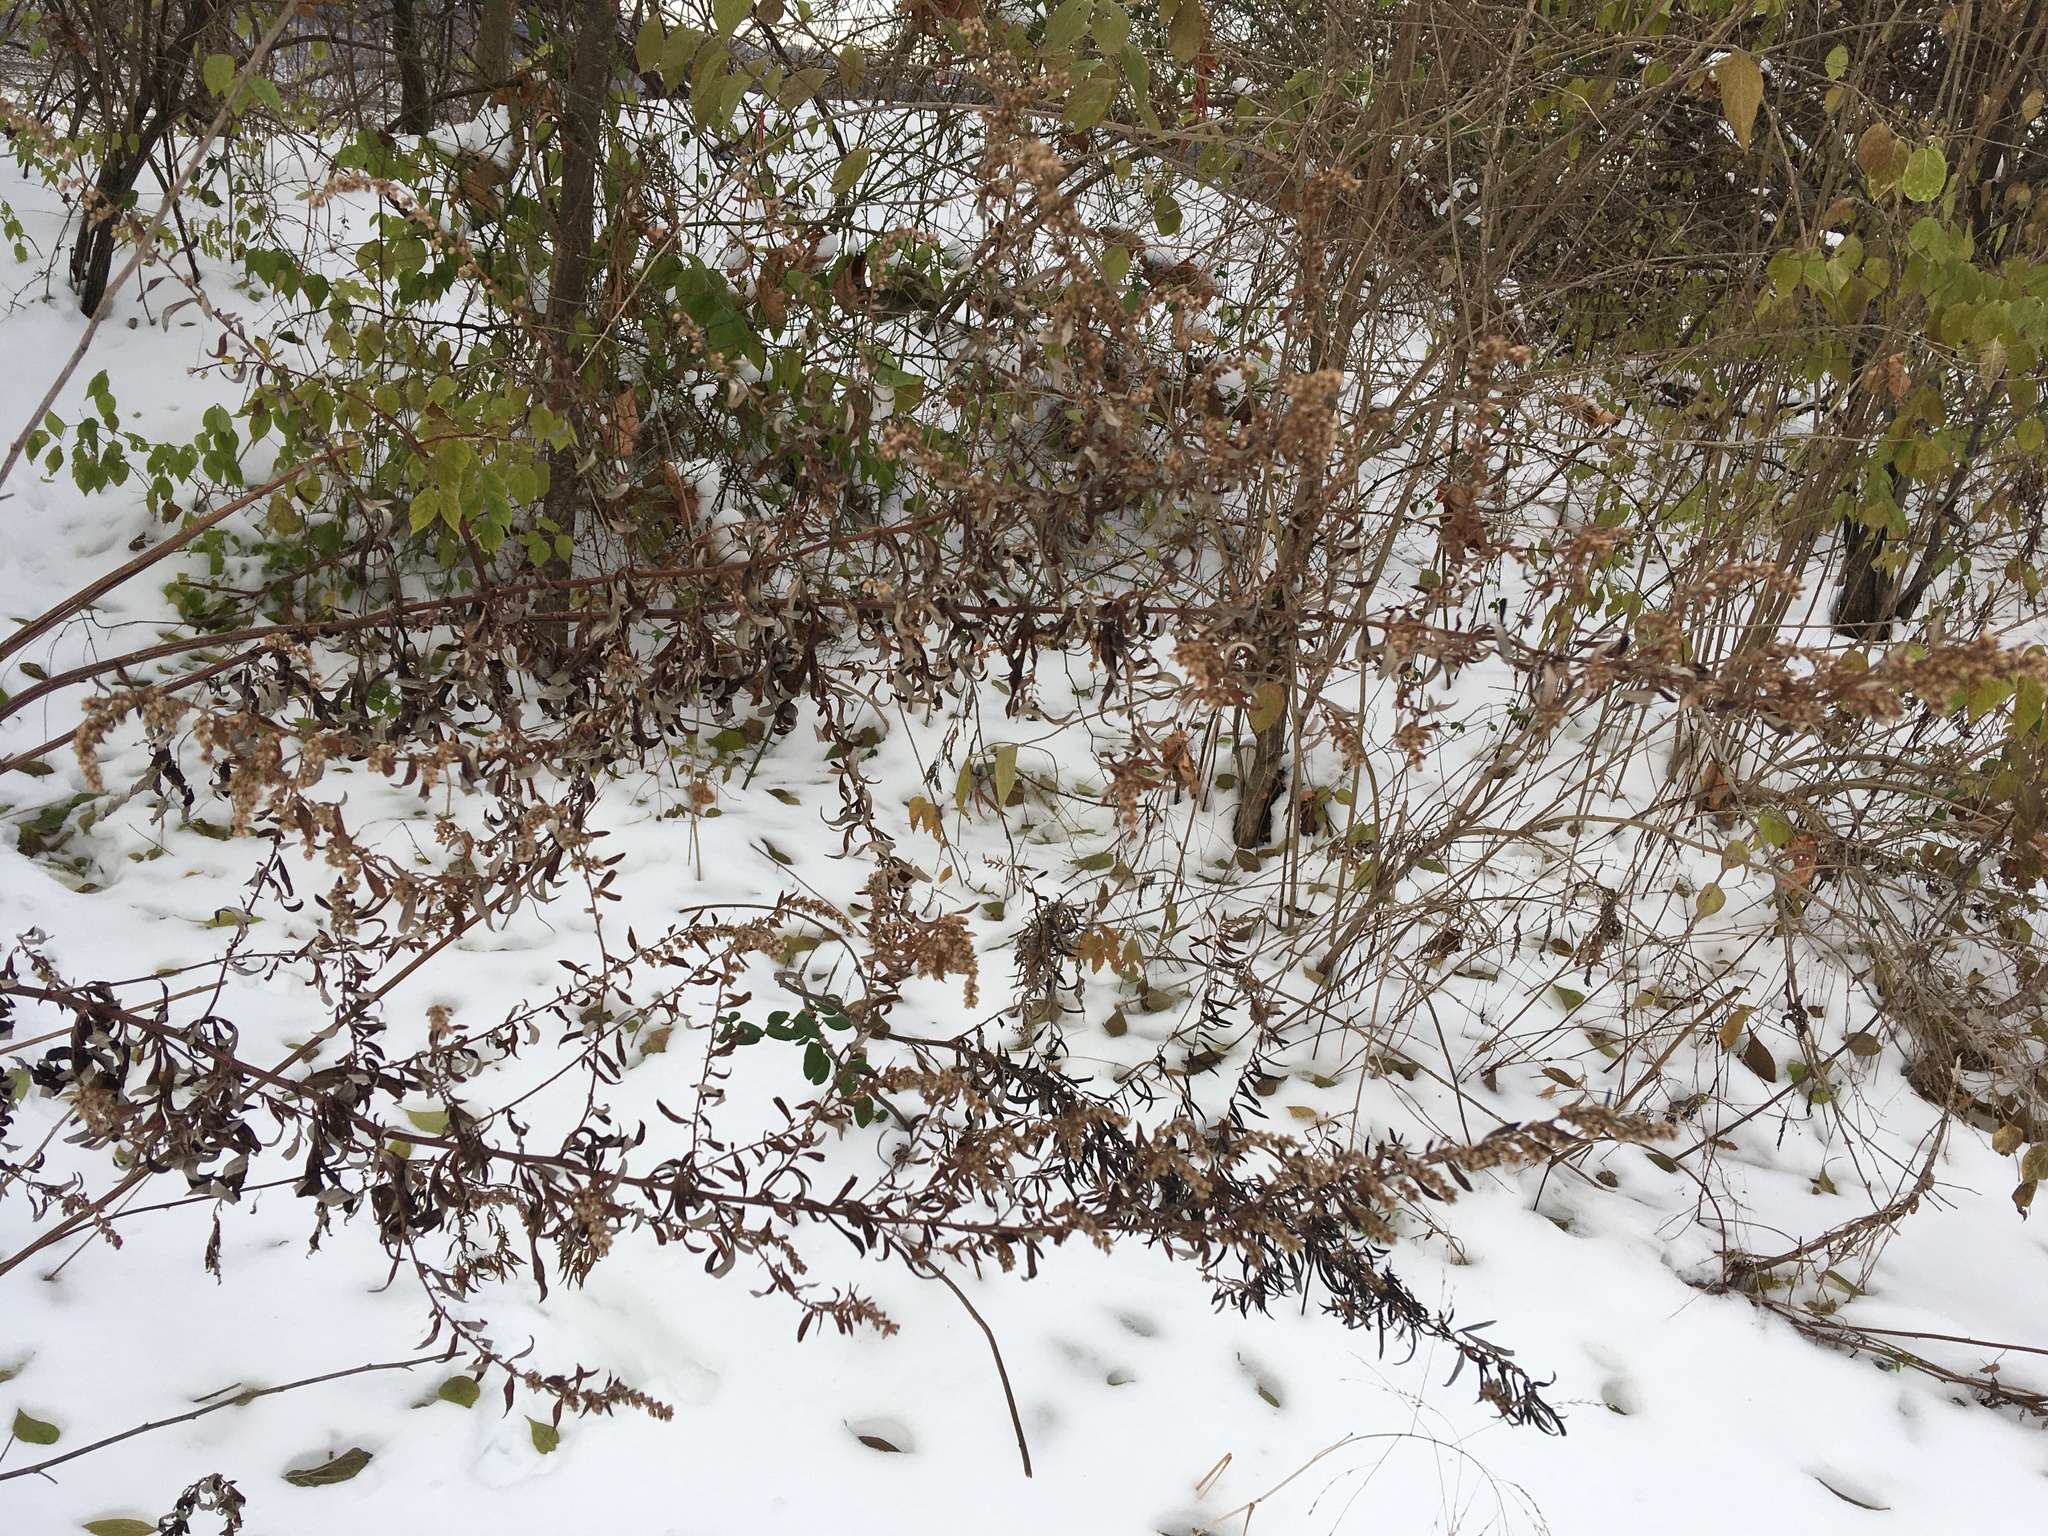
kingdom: Plantae
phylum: Tracheophyta
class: Magnoliopsida
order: Asterales
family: Asteraceae
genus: Artemisia
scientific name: Artemisia vulgaris
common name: Mugwort
